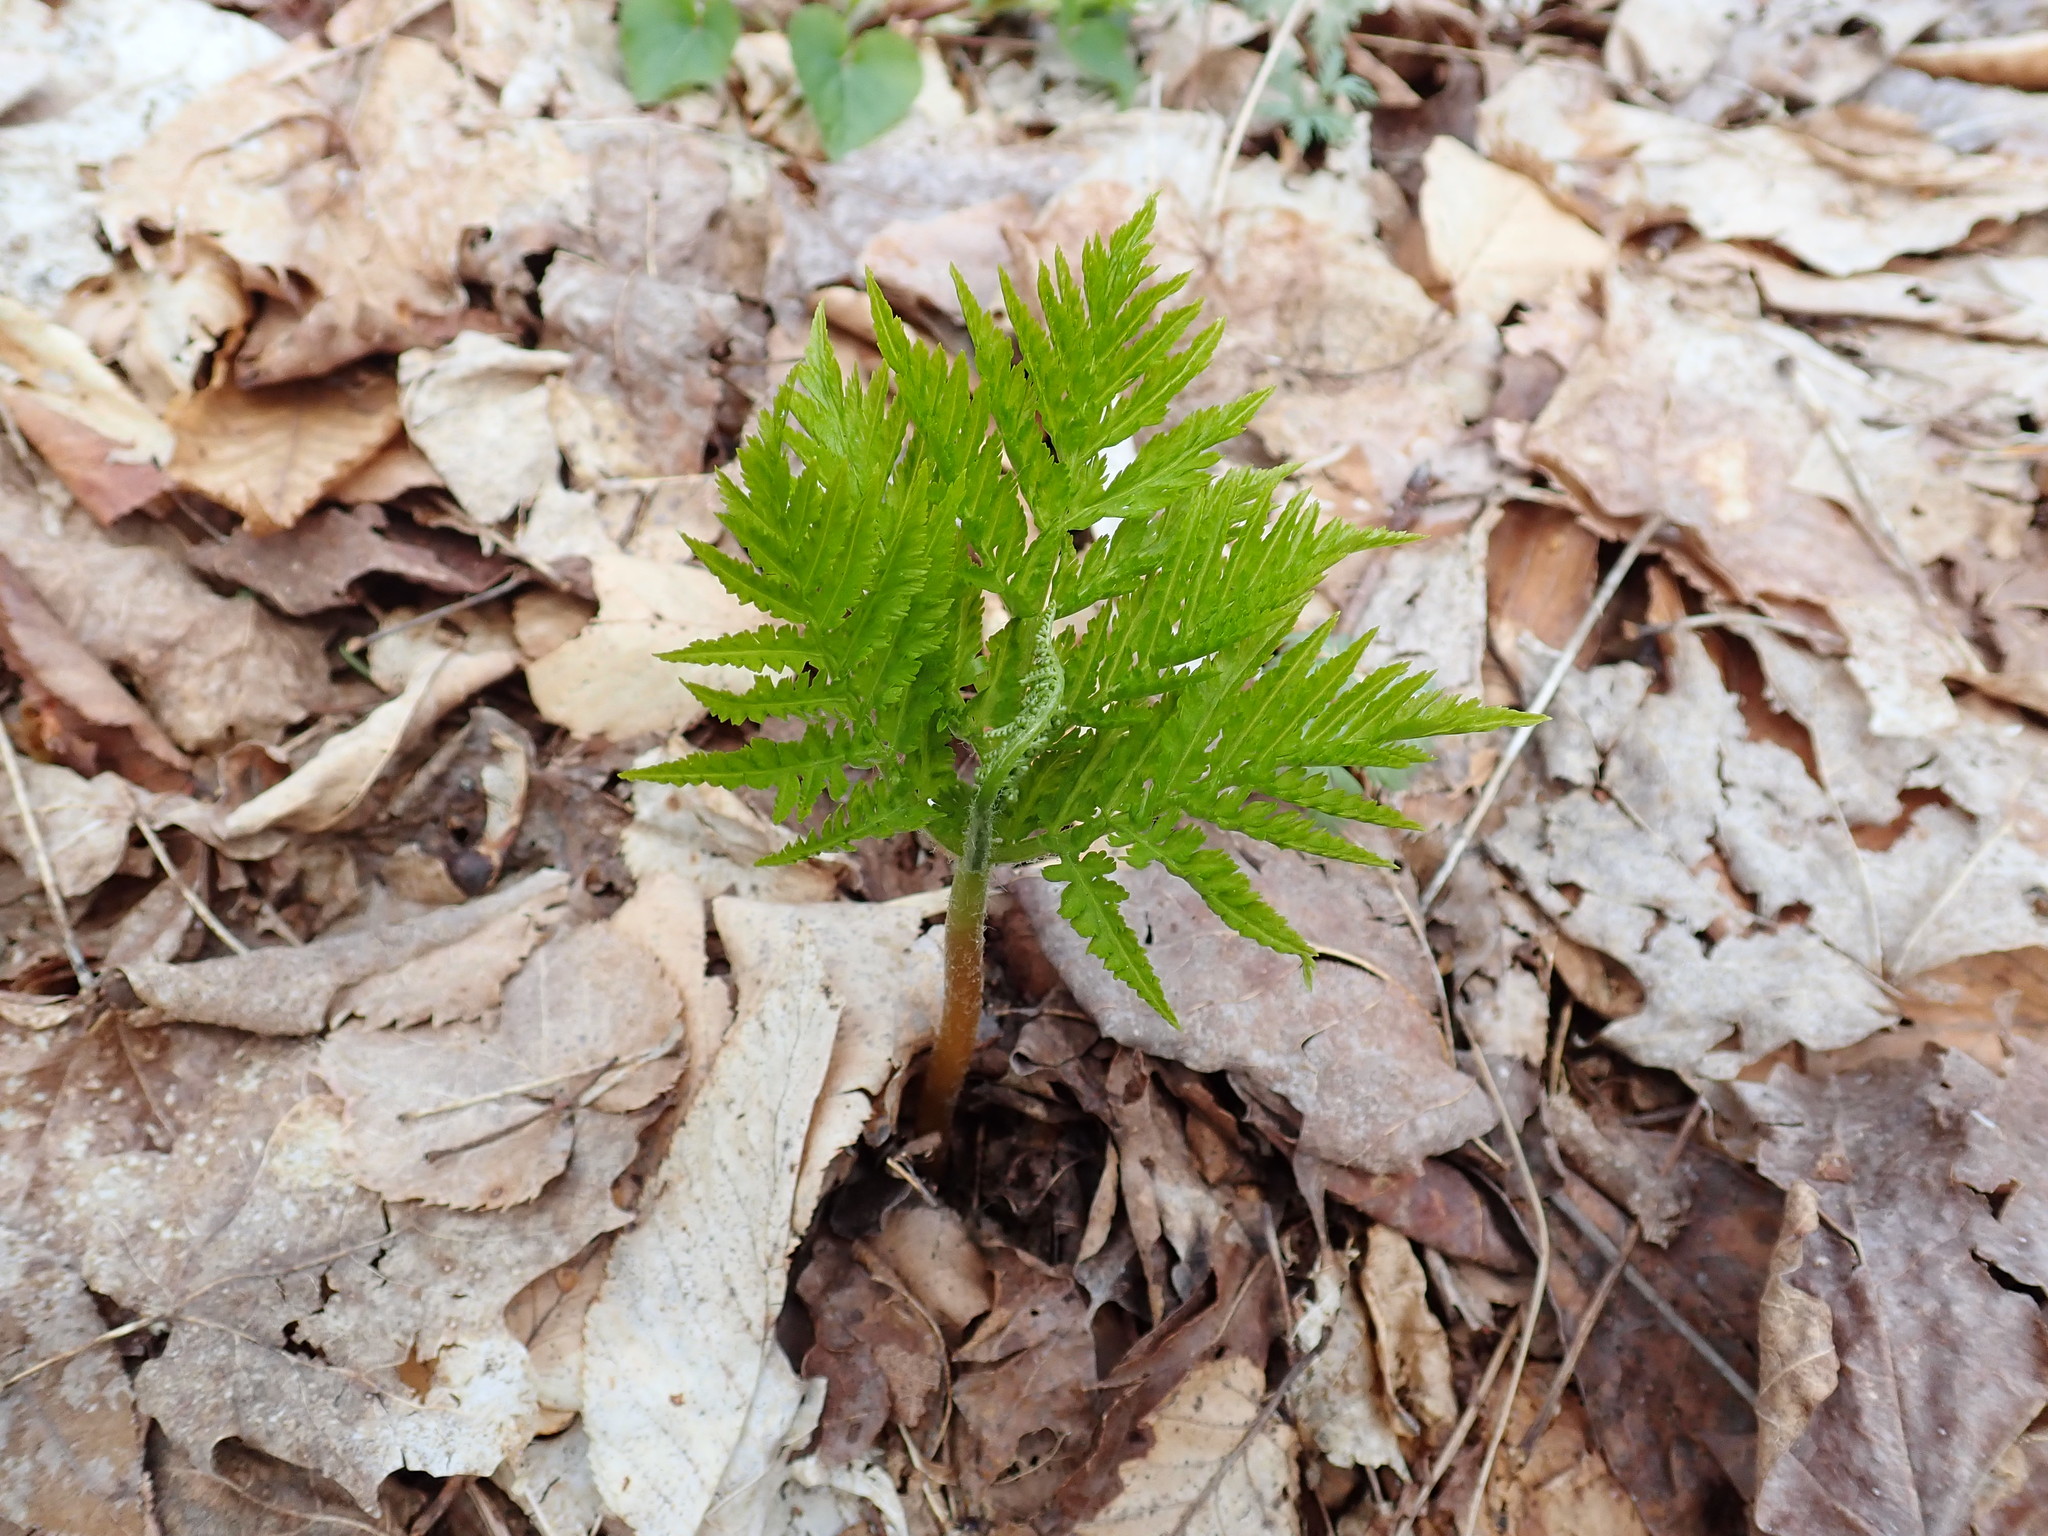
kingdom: Plantae
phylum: Tracheophyta
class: Polypodiopsida
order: Ophioglossales
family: Ophioglossaceae
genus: Botrypus
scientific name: Botrypus virginianus
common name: Common grapefern
